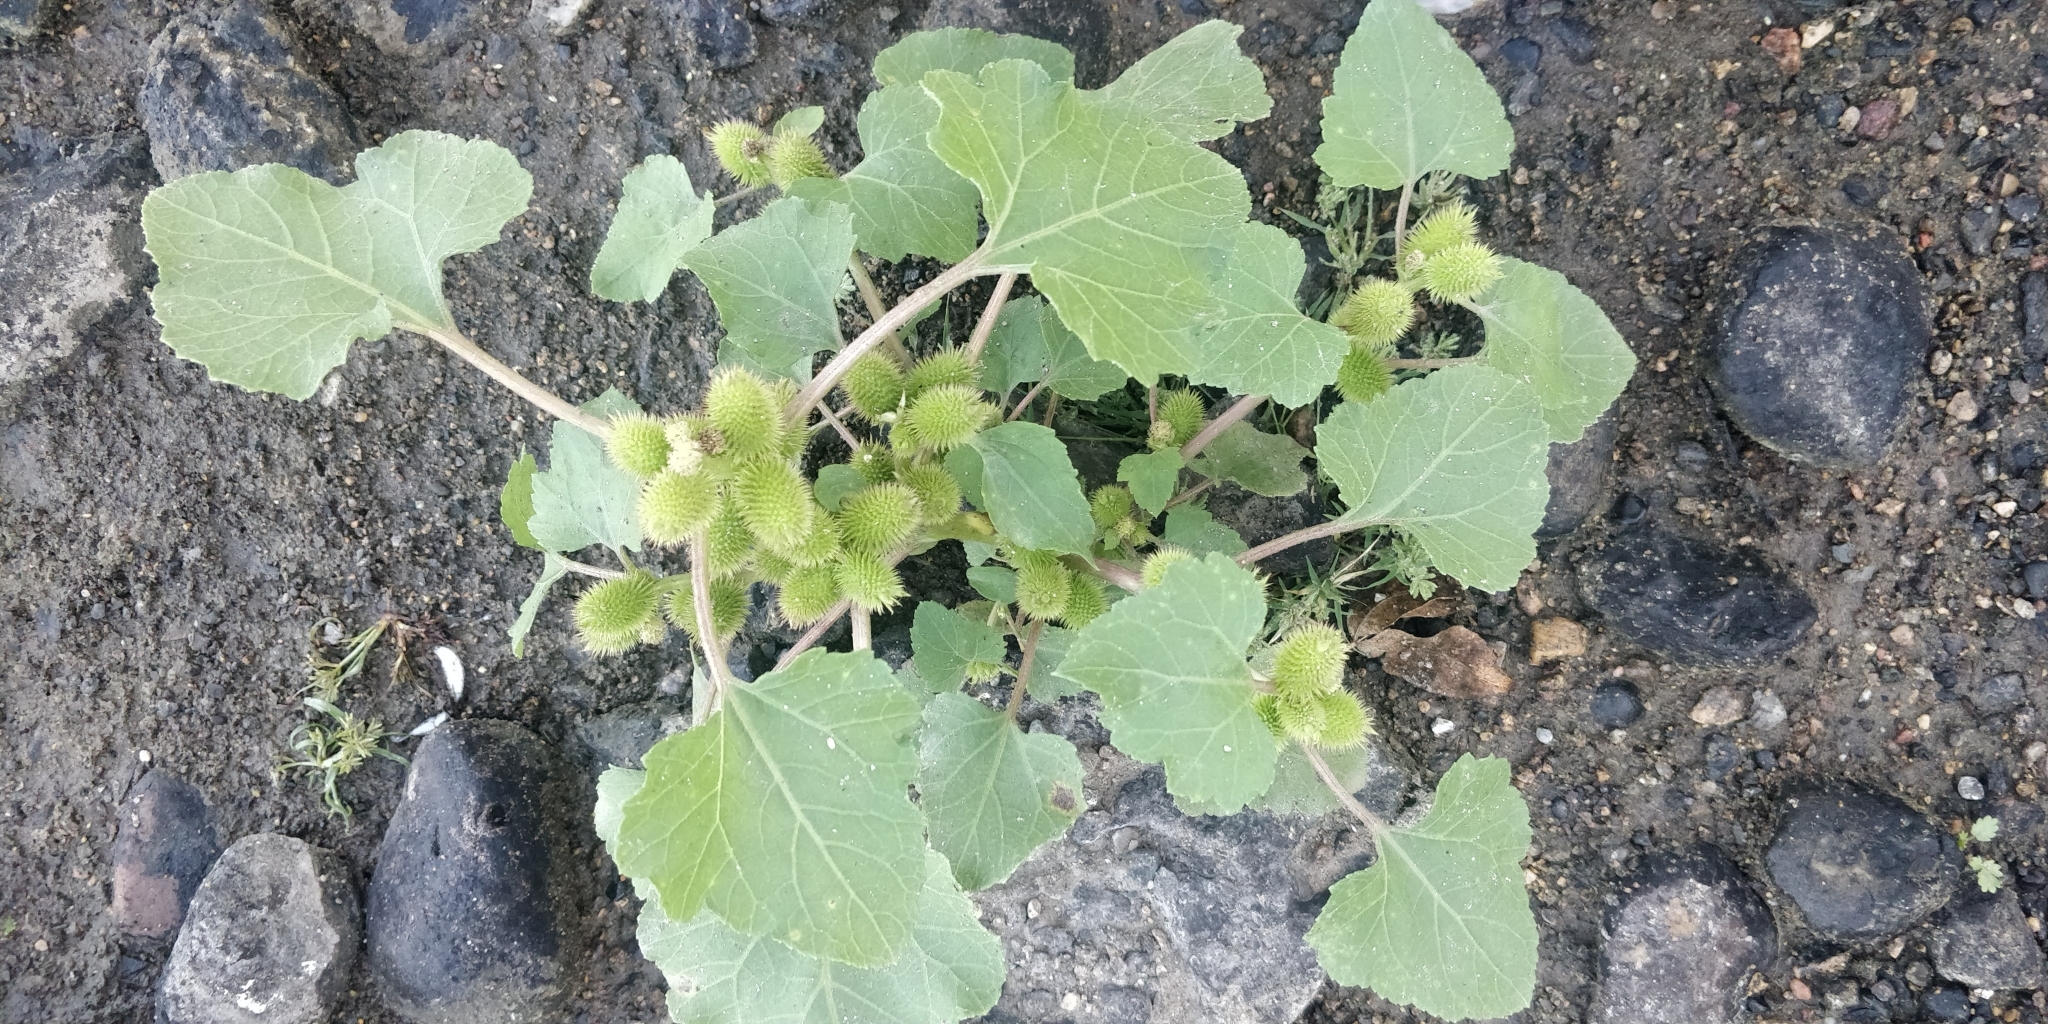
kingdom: Plantae
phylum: Tracheophyta
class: Magnoliopsida
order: Asterales
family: Asteraceae
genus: Xanthium
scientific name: Xanthium strumarium
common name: Rough cocklebur
